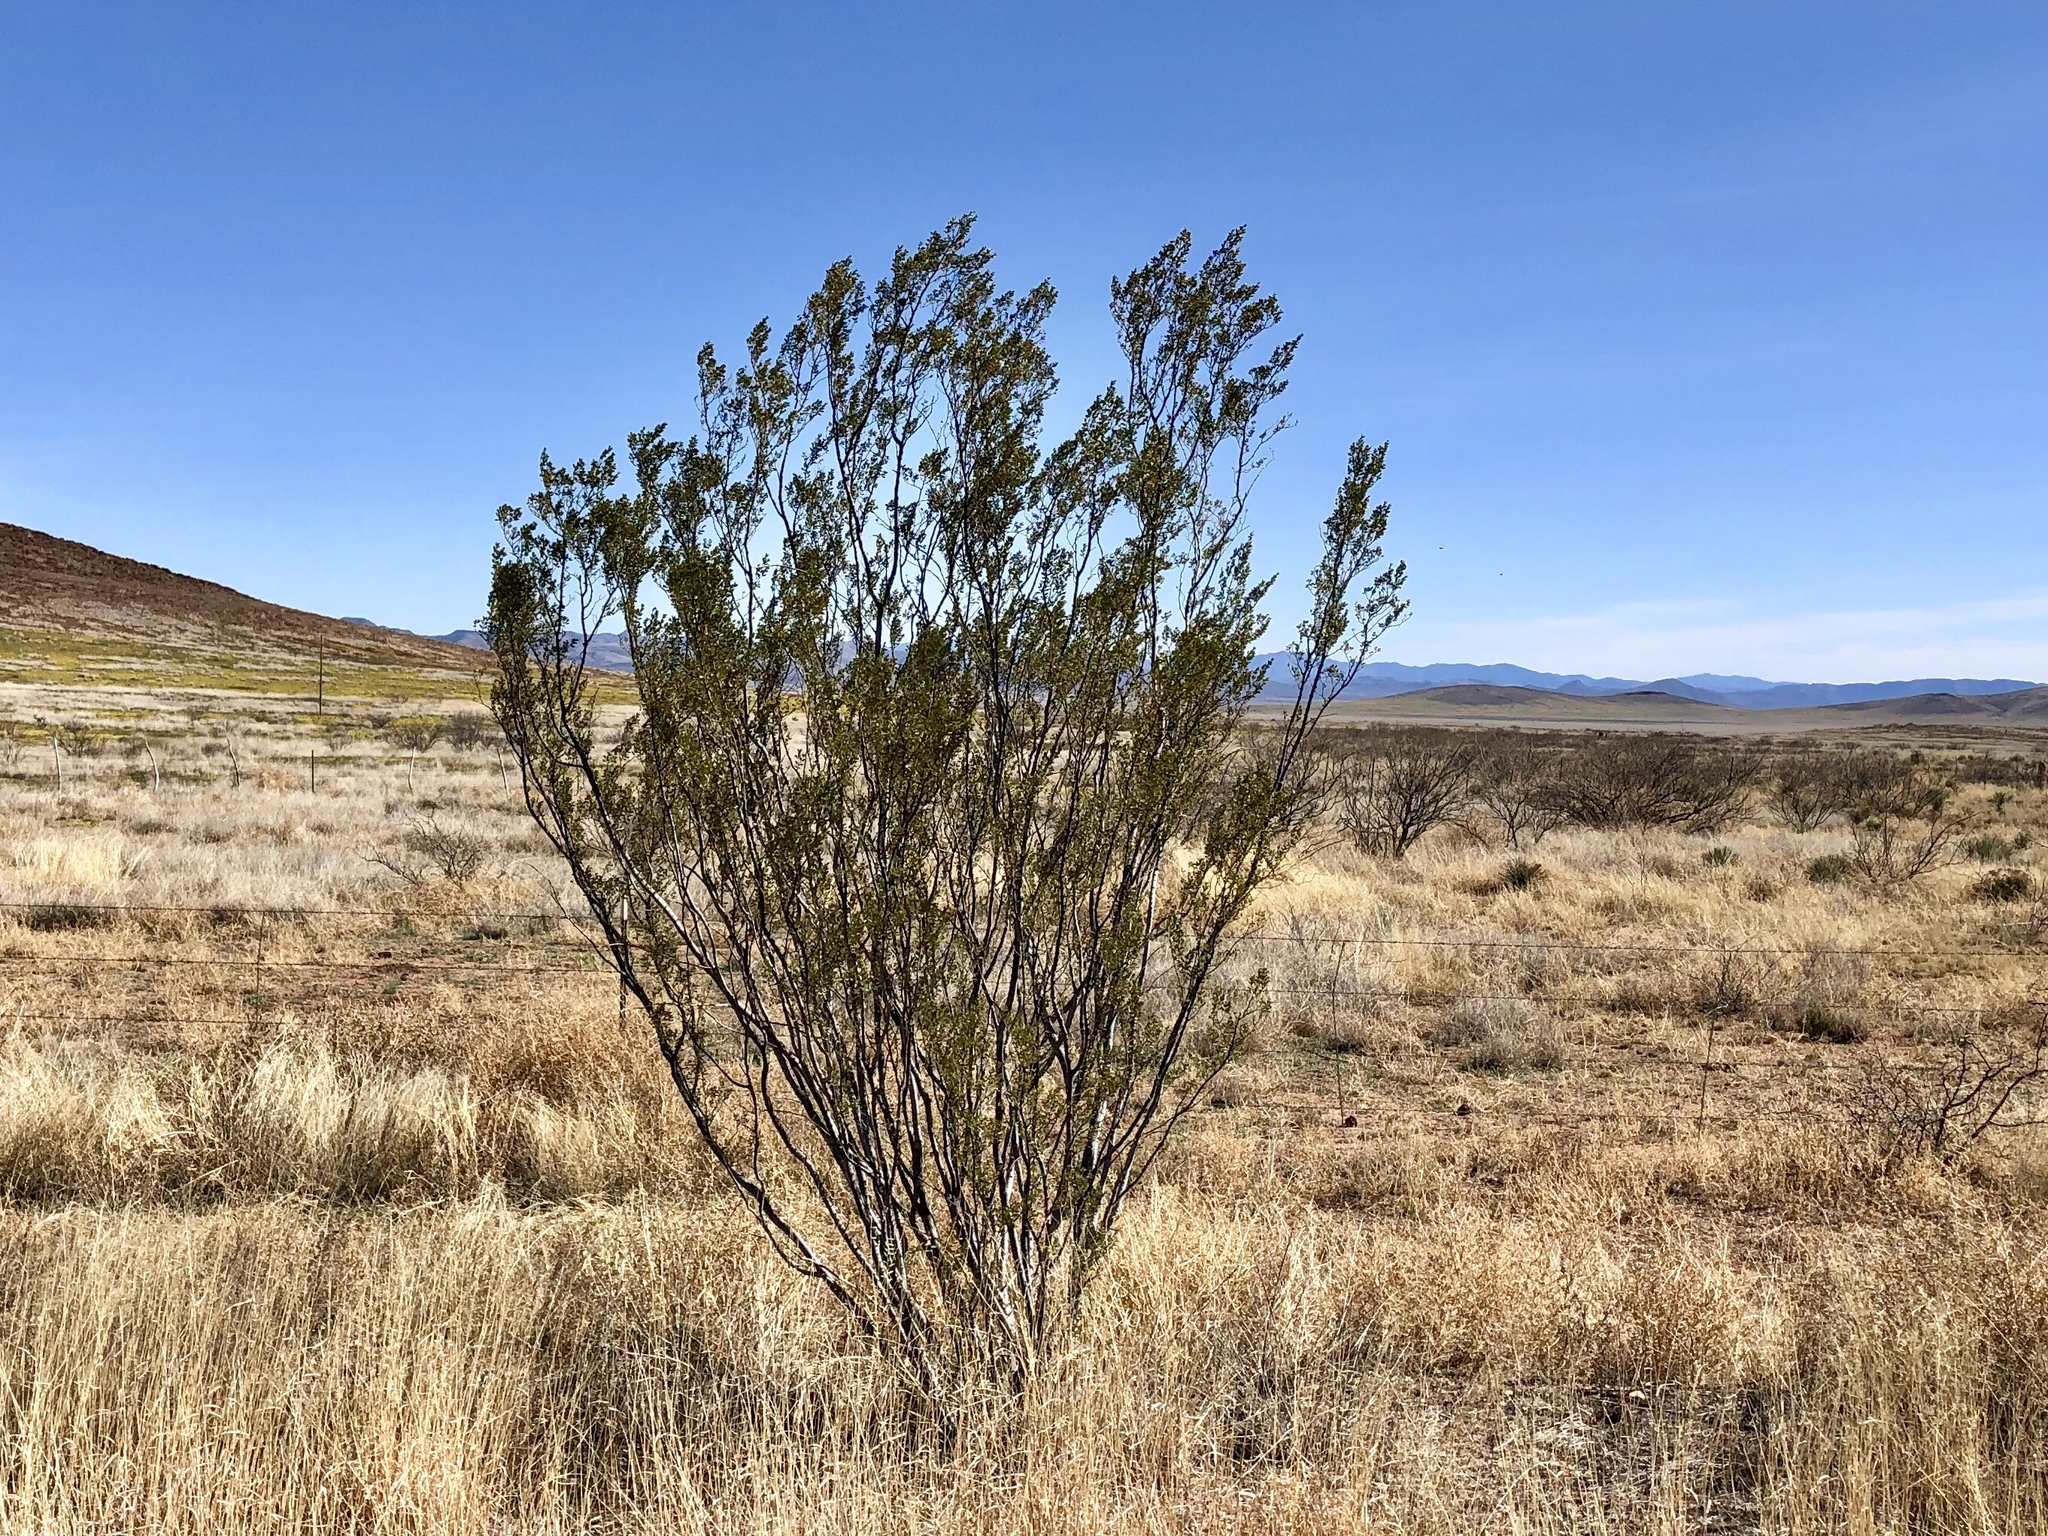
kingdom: Plantae
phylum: Tracheophyta
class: Magnoliopsida
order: Zygophyllales
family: Zygophyllaceae
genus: Larrea
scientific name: Larrea tridentata
